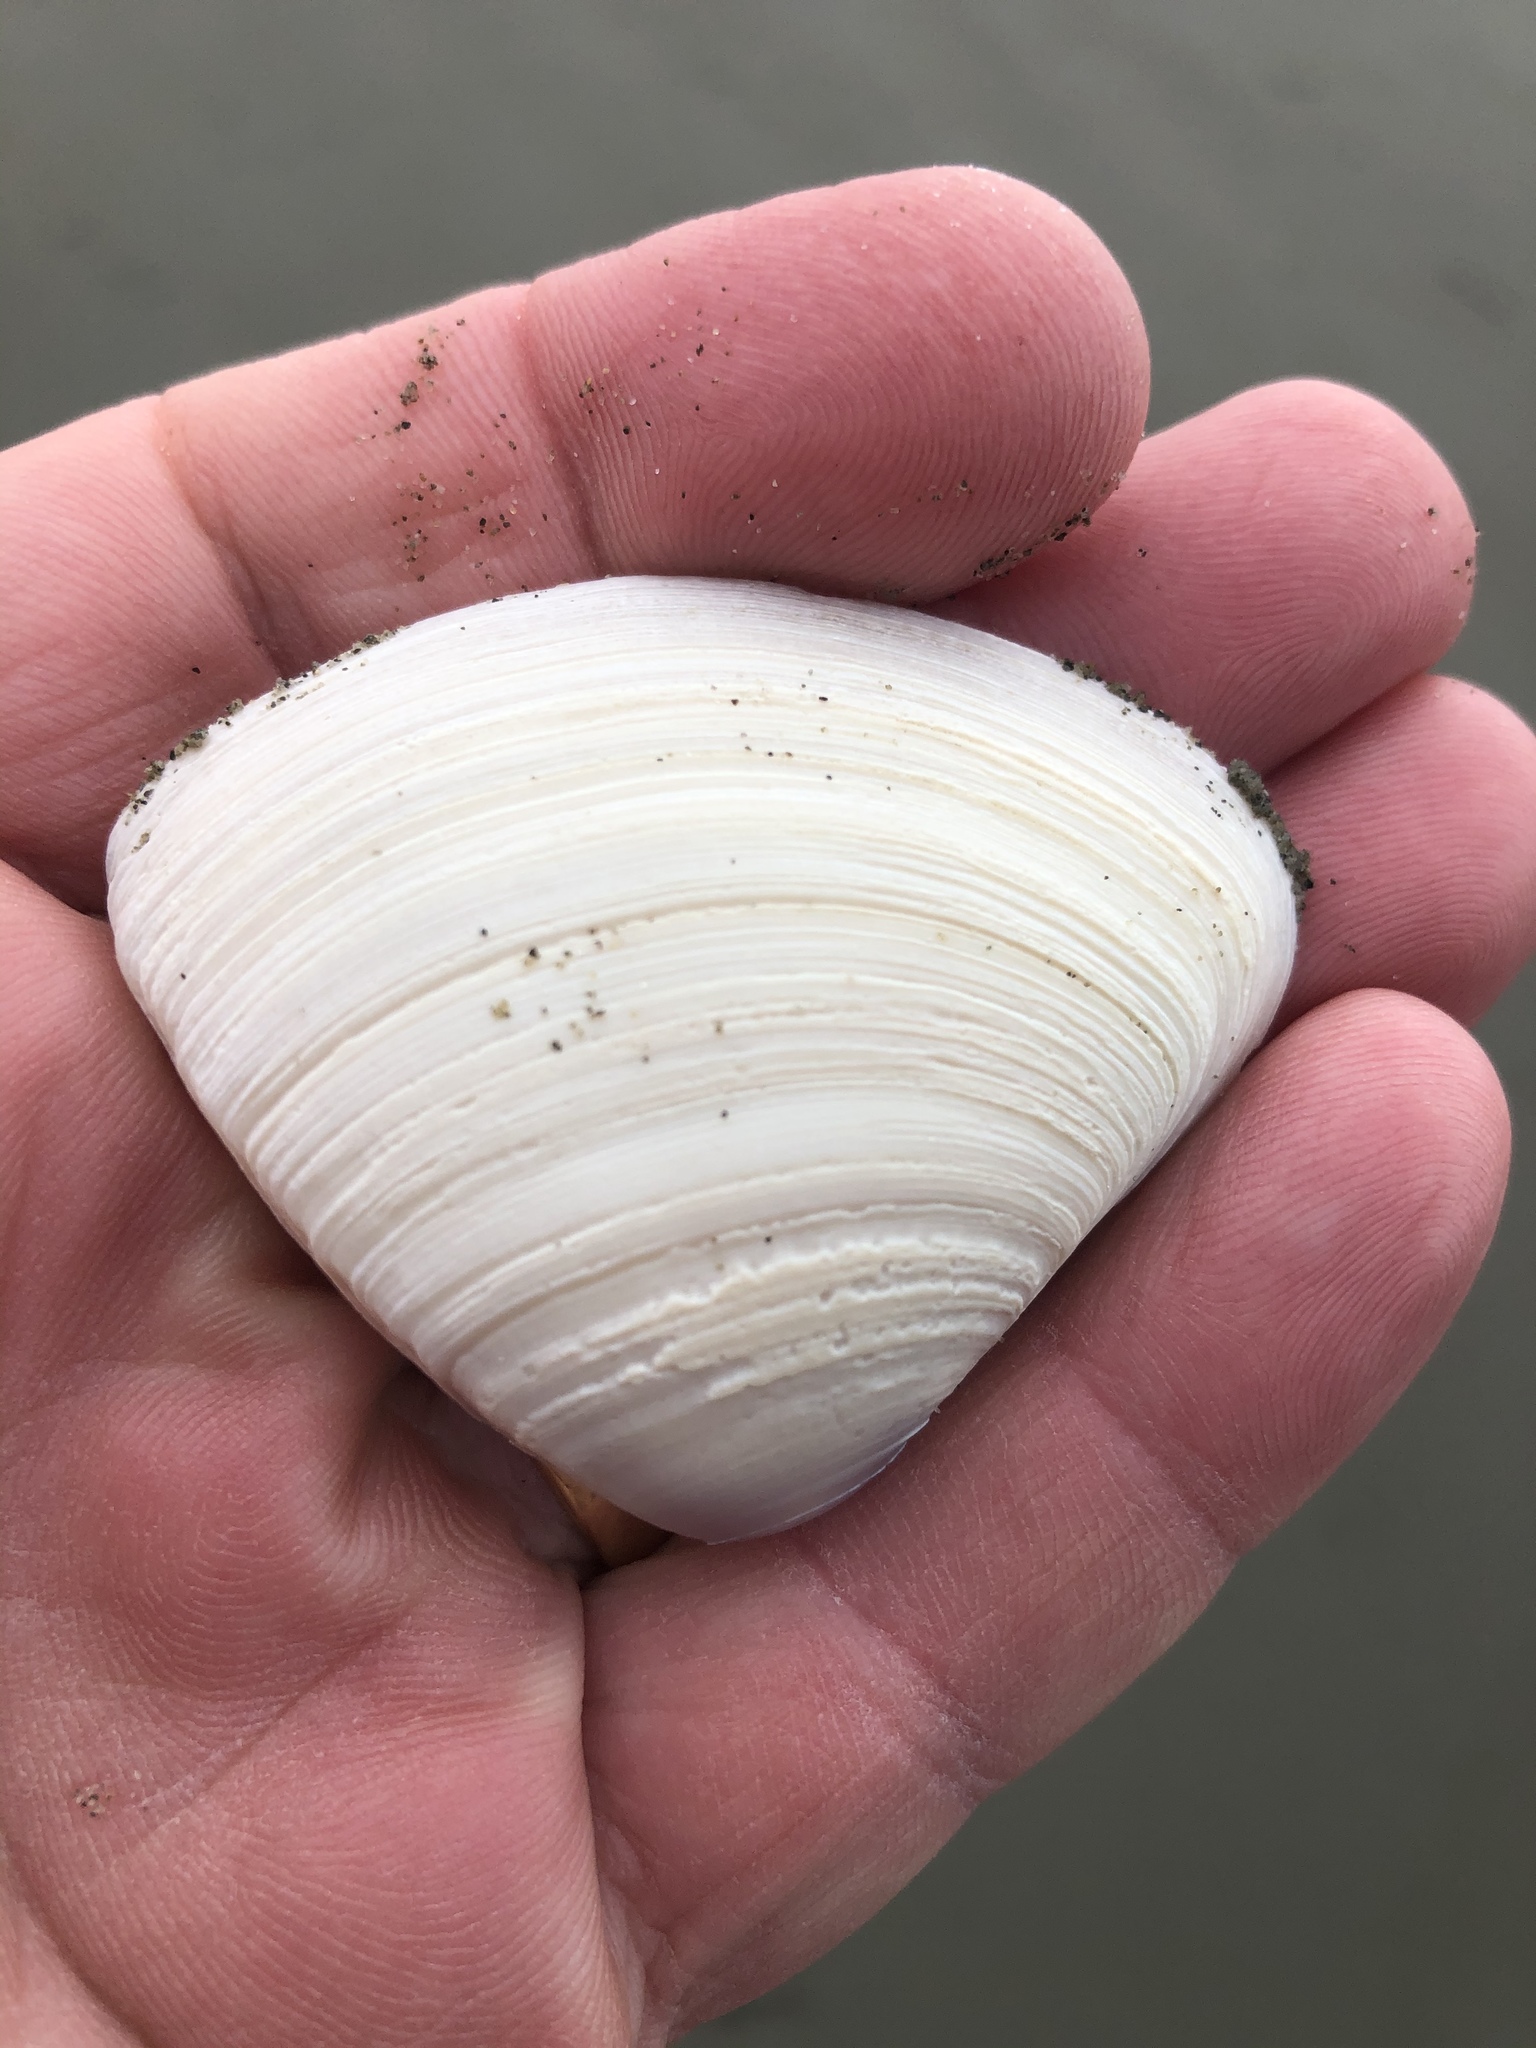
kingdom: Animalia
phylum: Mollusca
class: Bivalvia
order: Venerida
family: Mactridae
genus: Crassula
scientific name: Crassula aequilatera
